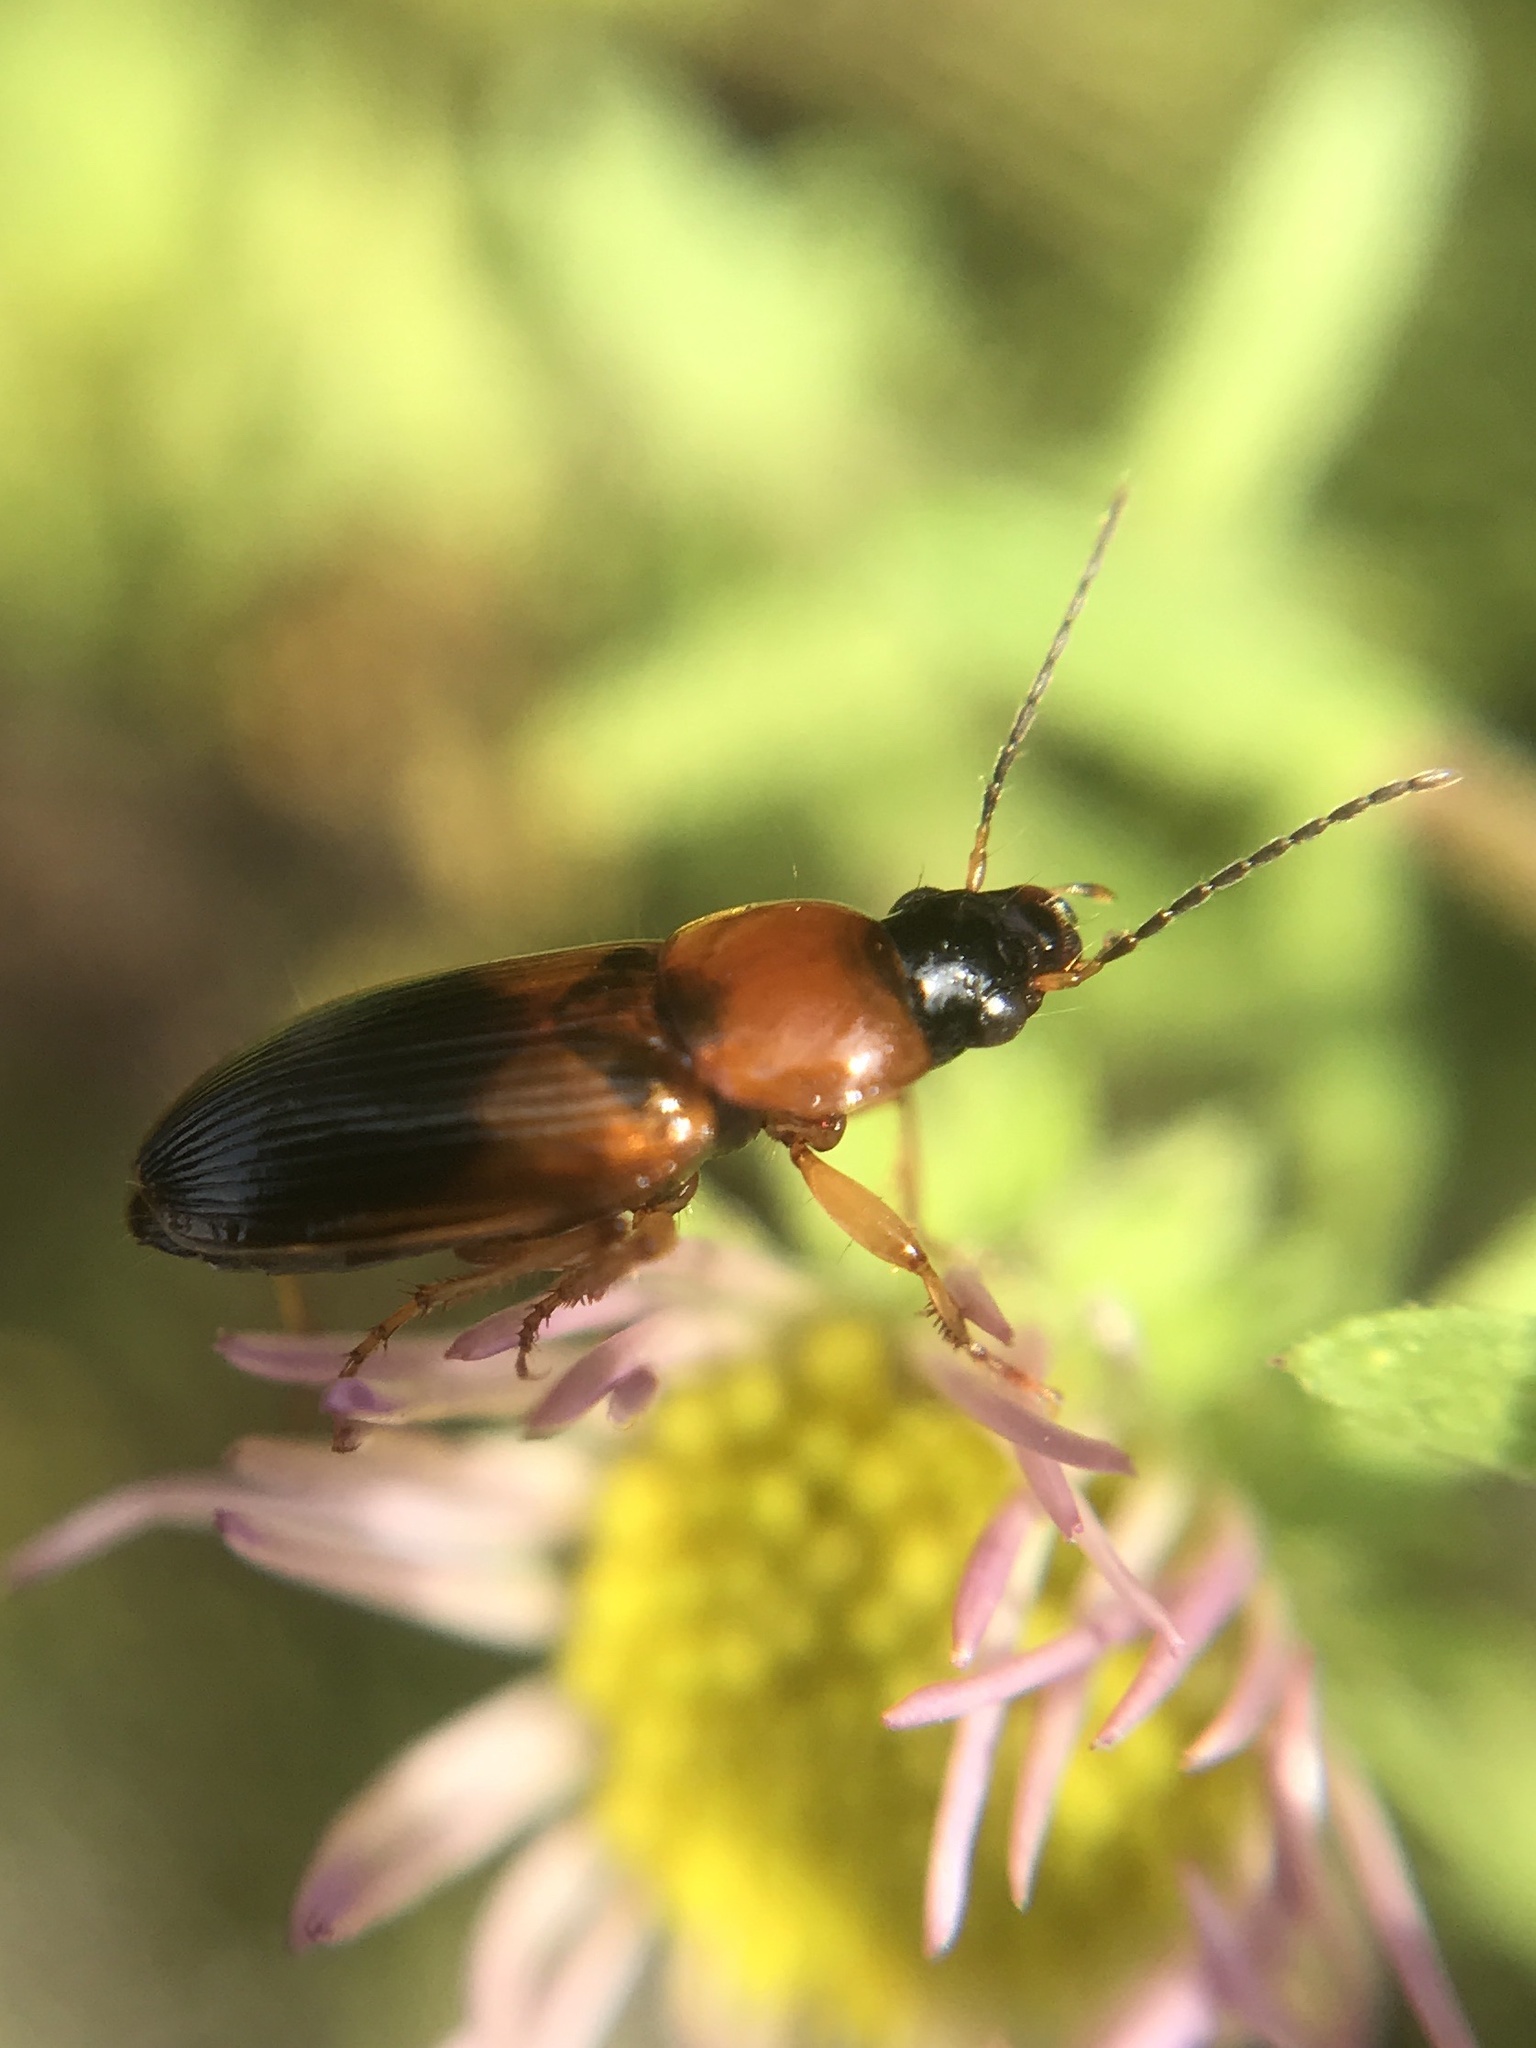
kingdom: Animalia
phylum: Arthropoda
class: Insecta
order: Coleoptera
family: Carabidae
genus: Stenolophus
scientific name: Stenolophus teutonus
